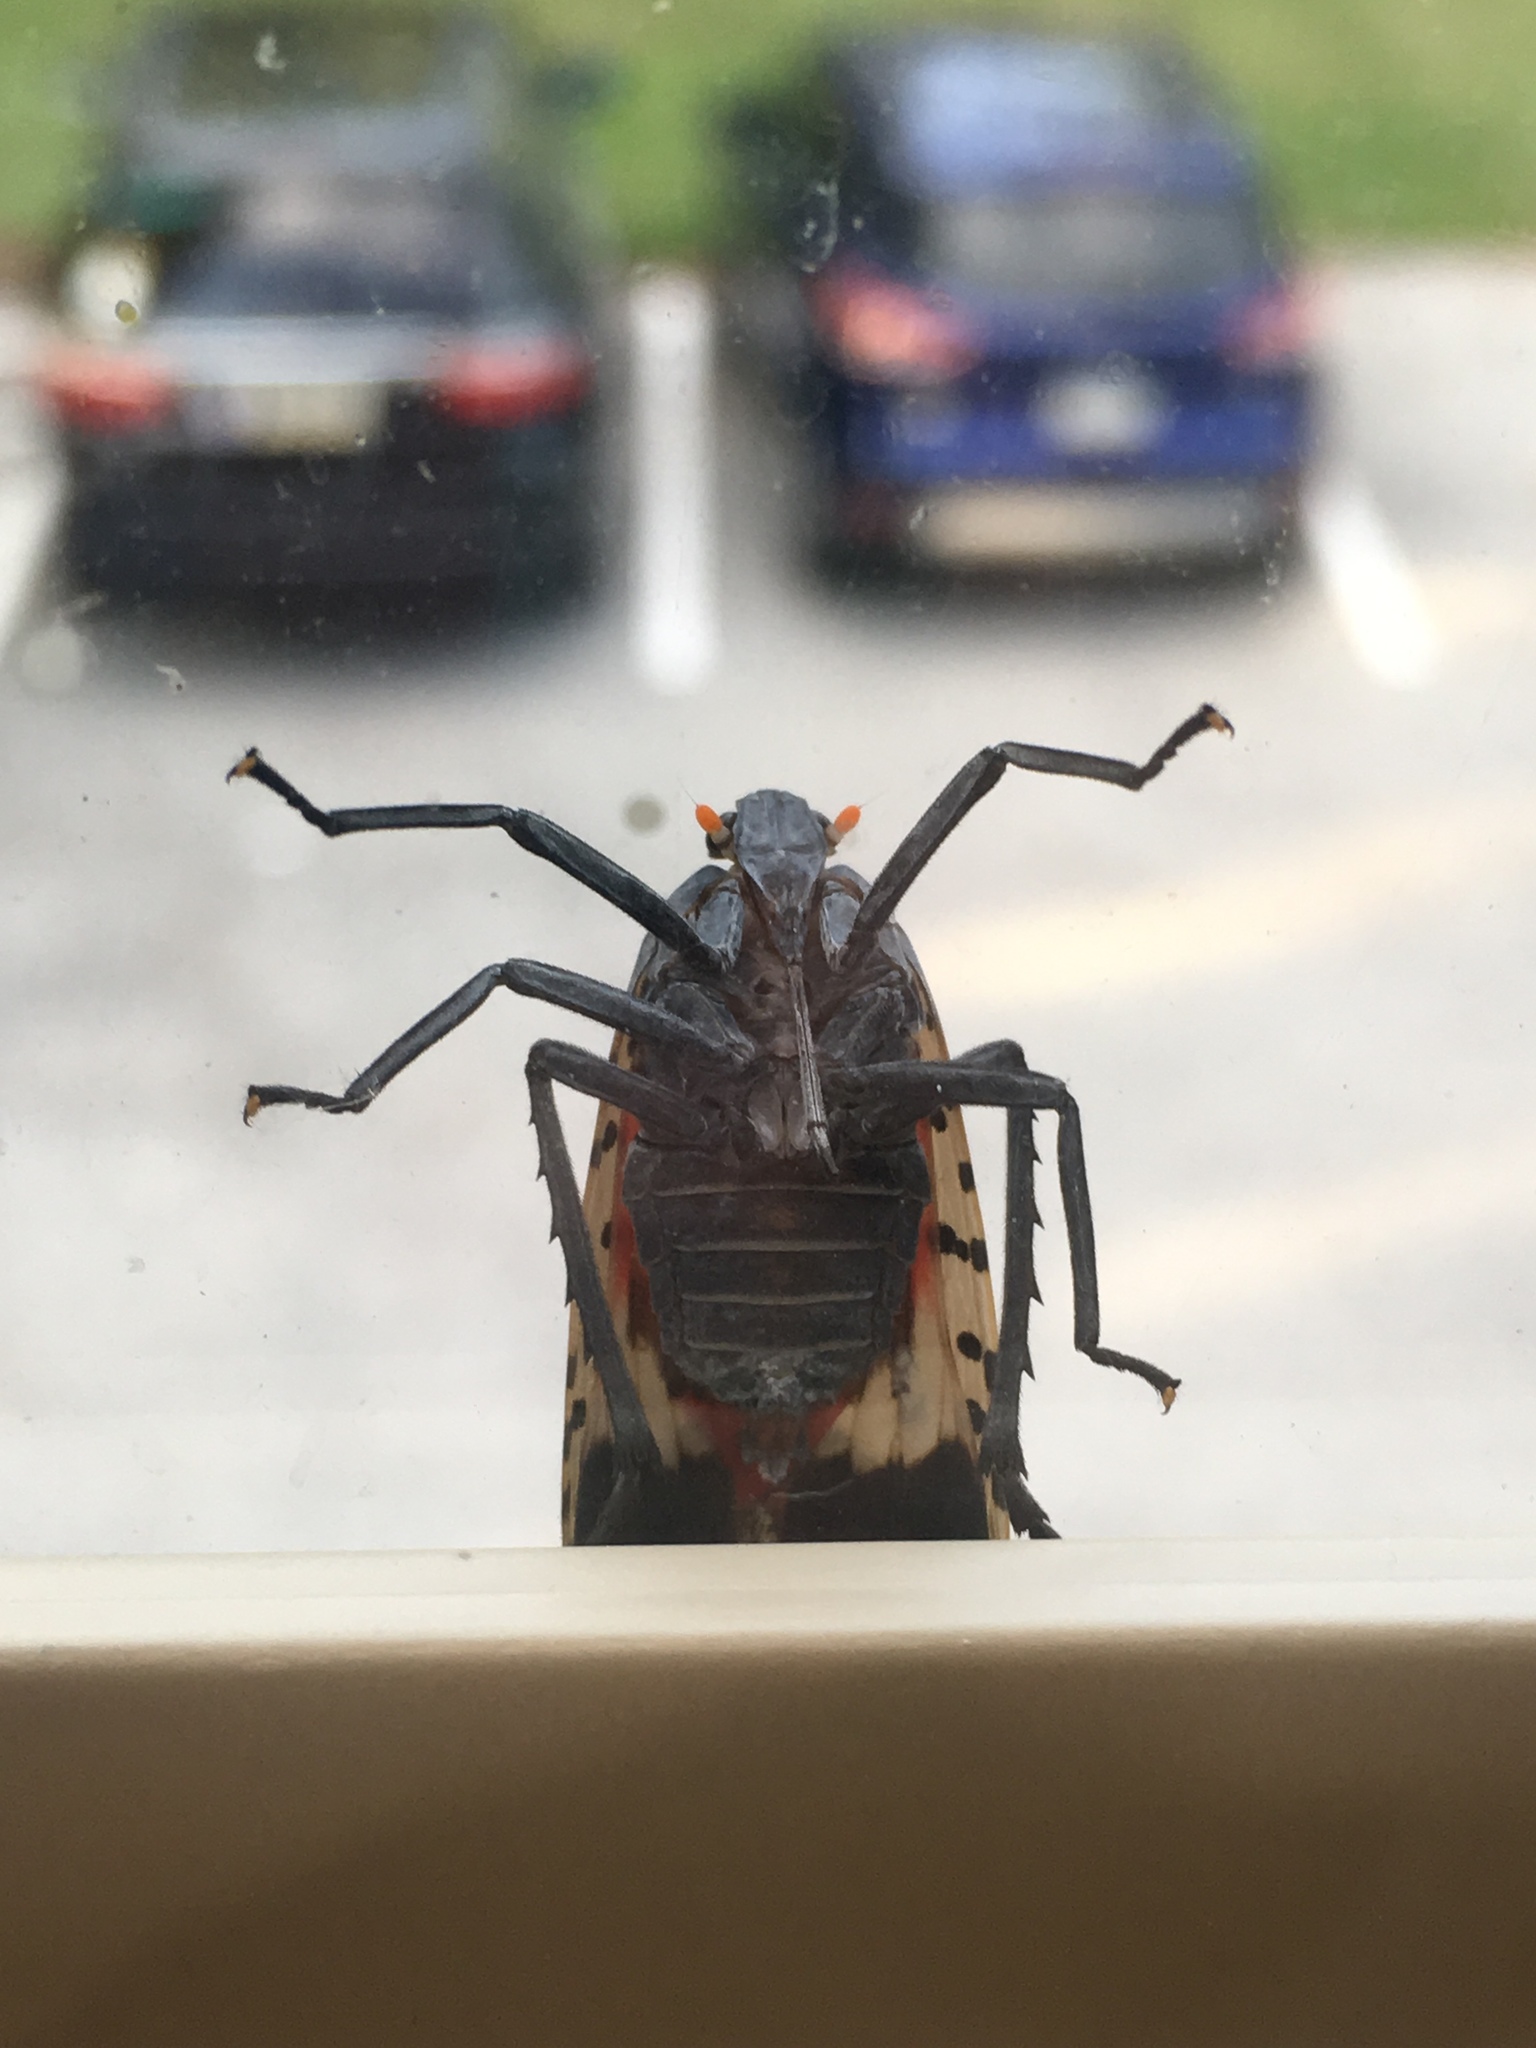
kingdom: Animalia
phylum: Arthropoda
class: Insecta
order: Hemiptera
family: Fulgoridae
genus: Lycorma
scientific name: Lycorma delicatula
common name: Spotted lanternfly
